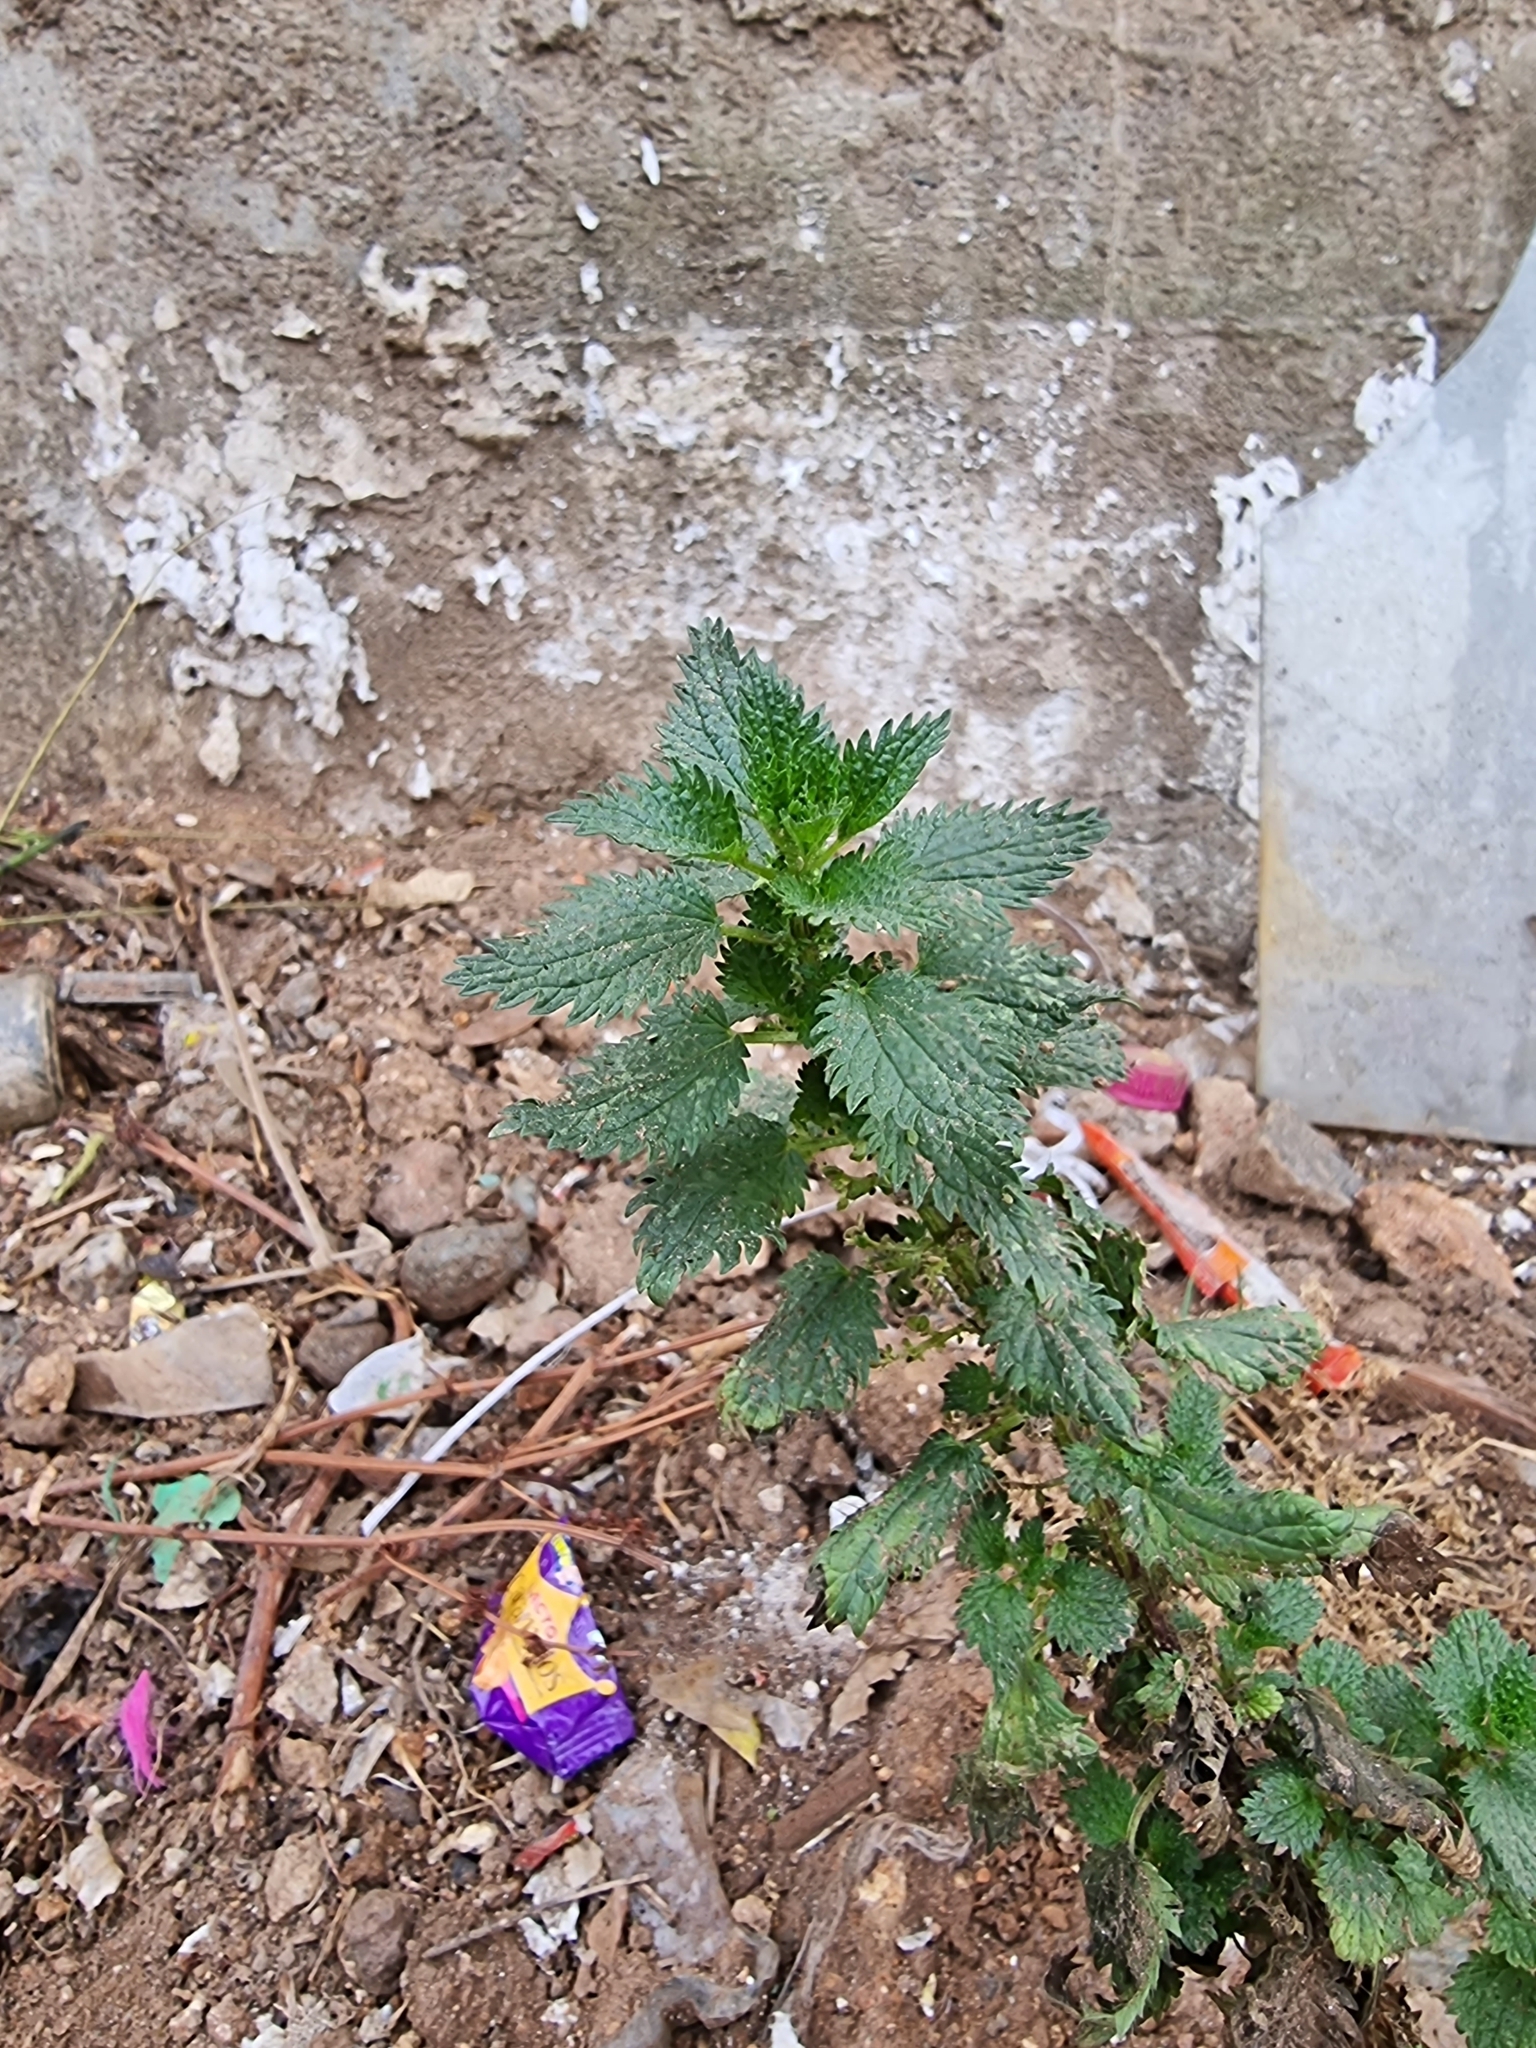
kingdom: Plantae
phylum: Tracheophyta
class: Magnoliopsida
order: Rosales
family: Urticaceae
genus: Urtica
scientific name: Urtica urens
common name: Dwarf nettle
